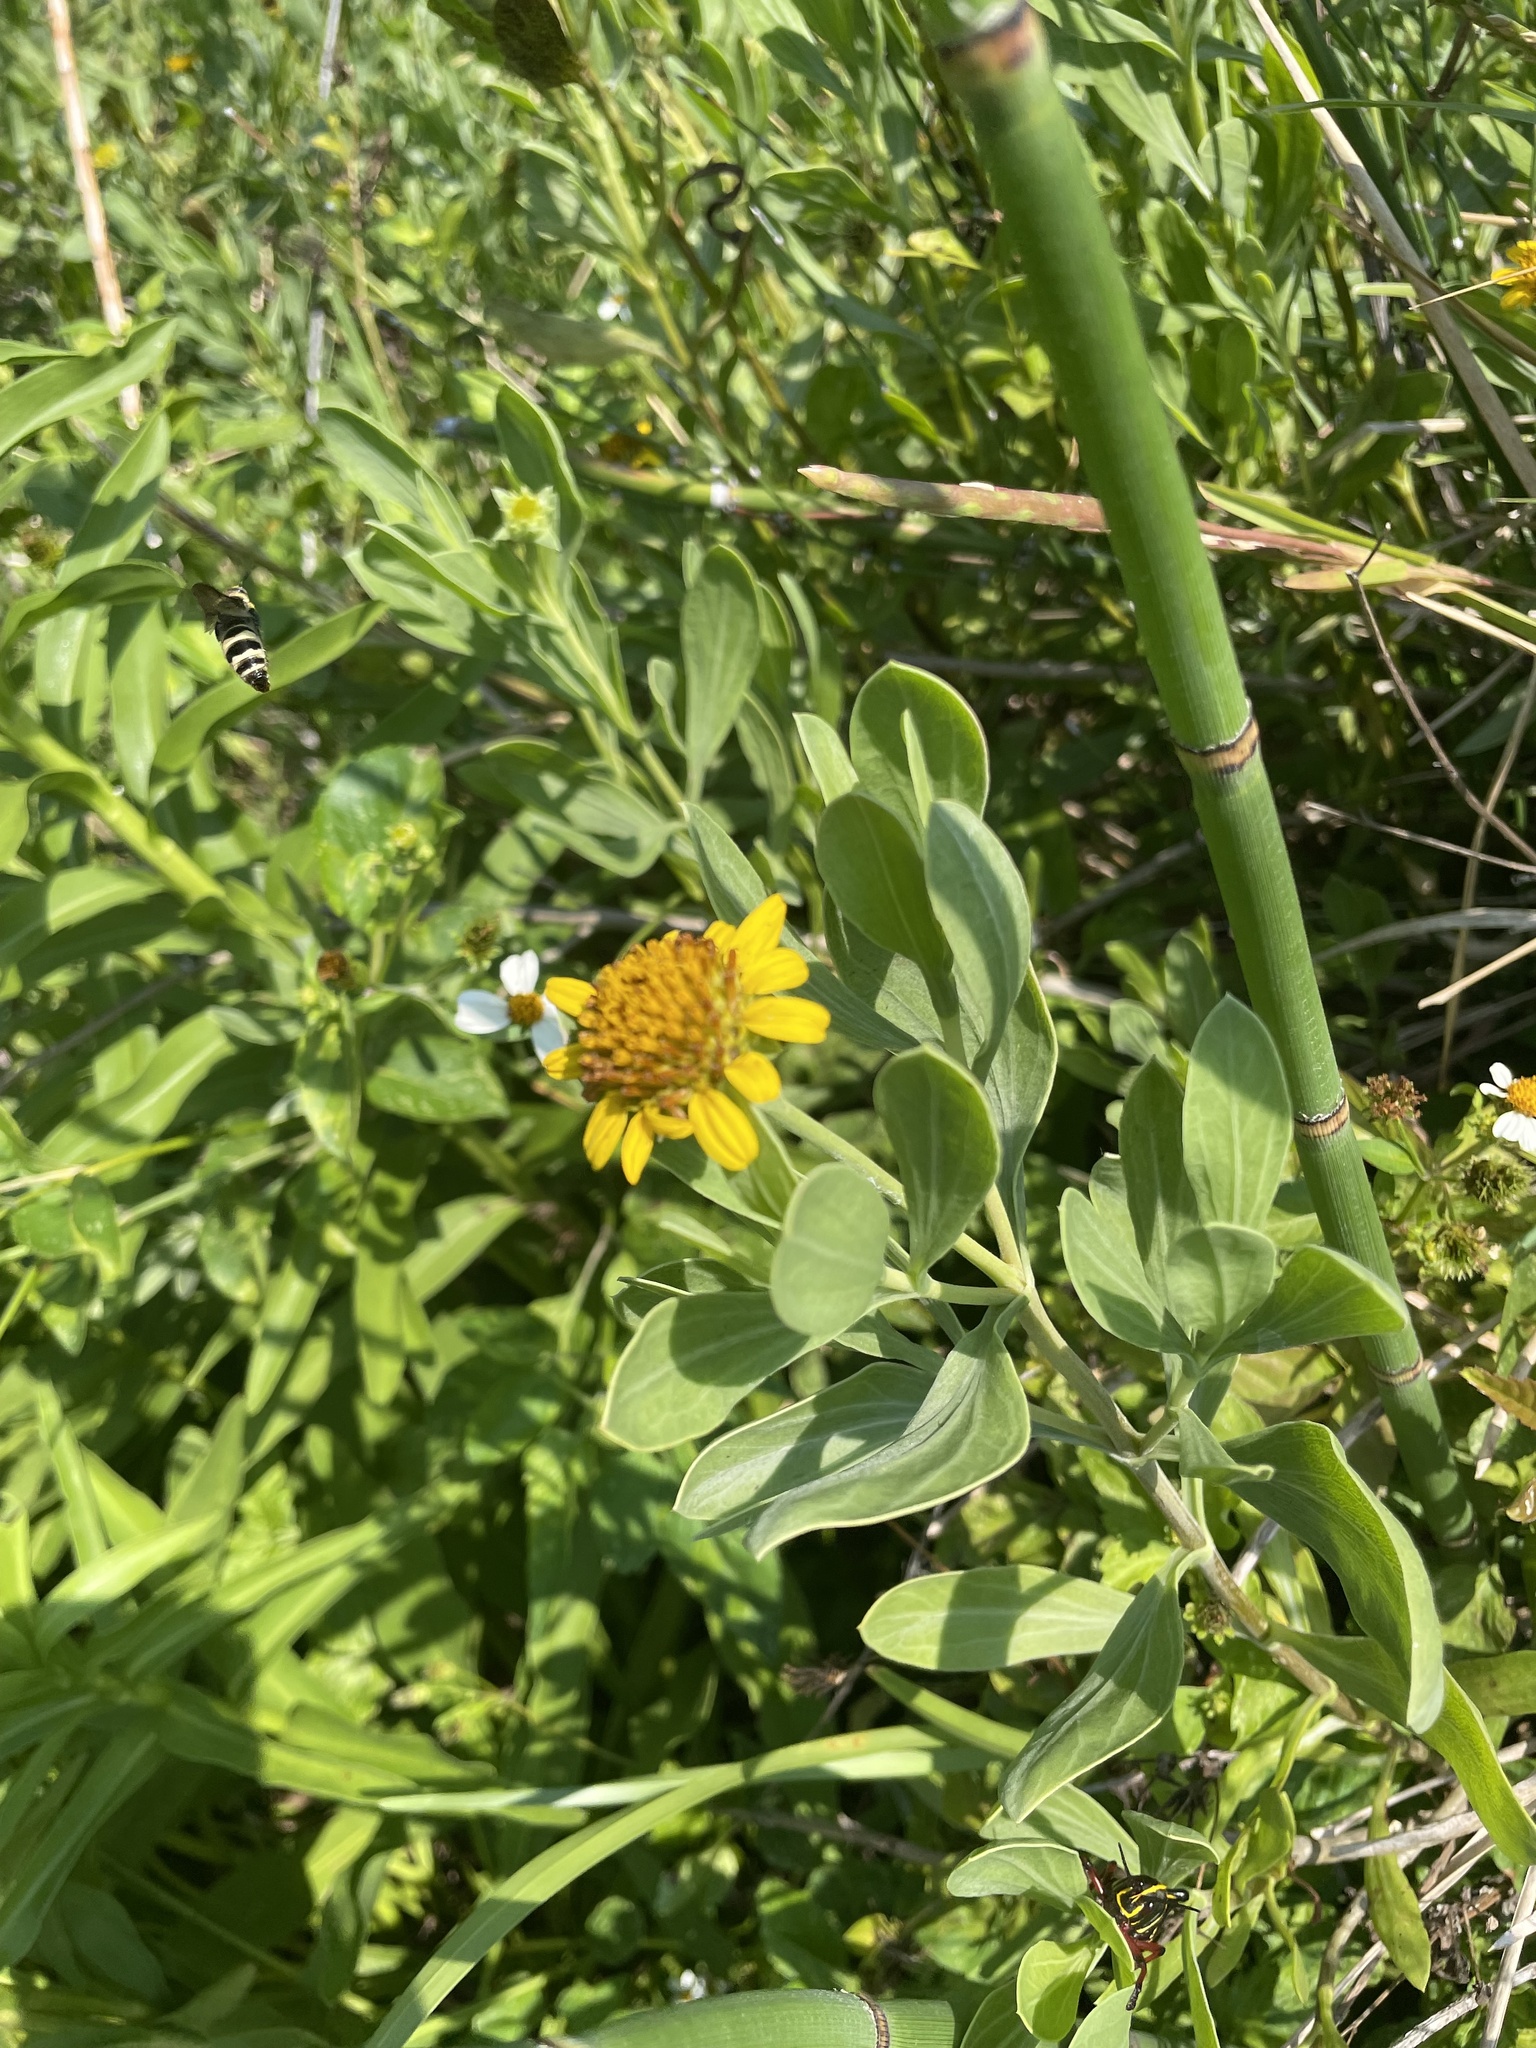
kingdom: Plantae
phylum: Tracheophyta
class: Magnoliopsida
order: Asterales
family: Asteraceae
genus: Borrichia
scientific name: Borrichia frutescens
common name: Sea oxeye
